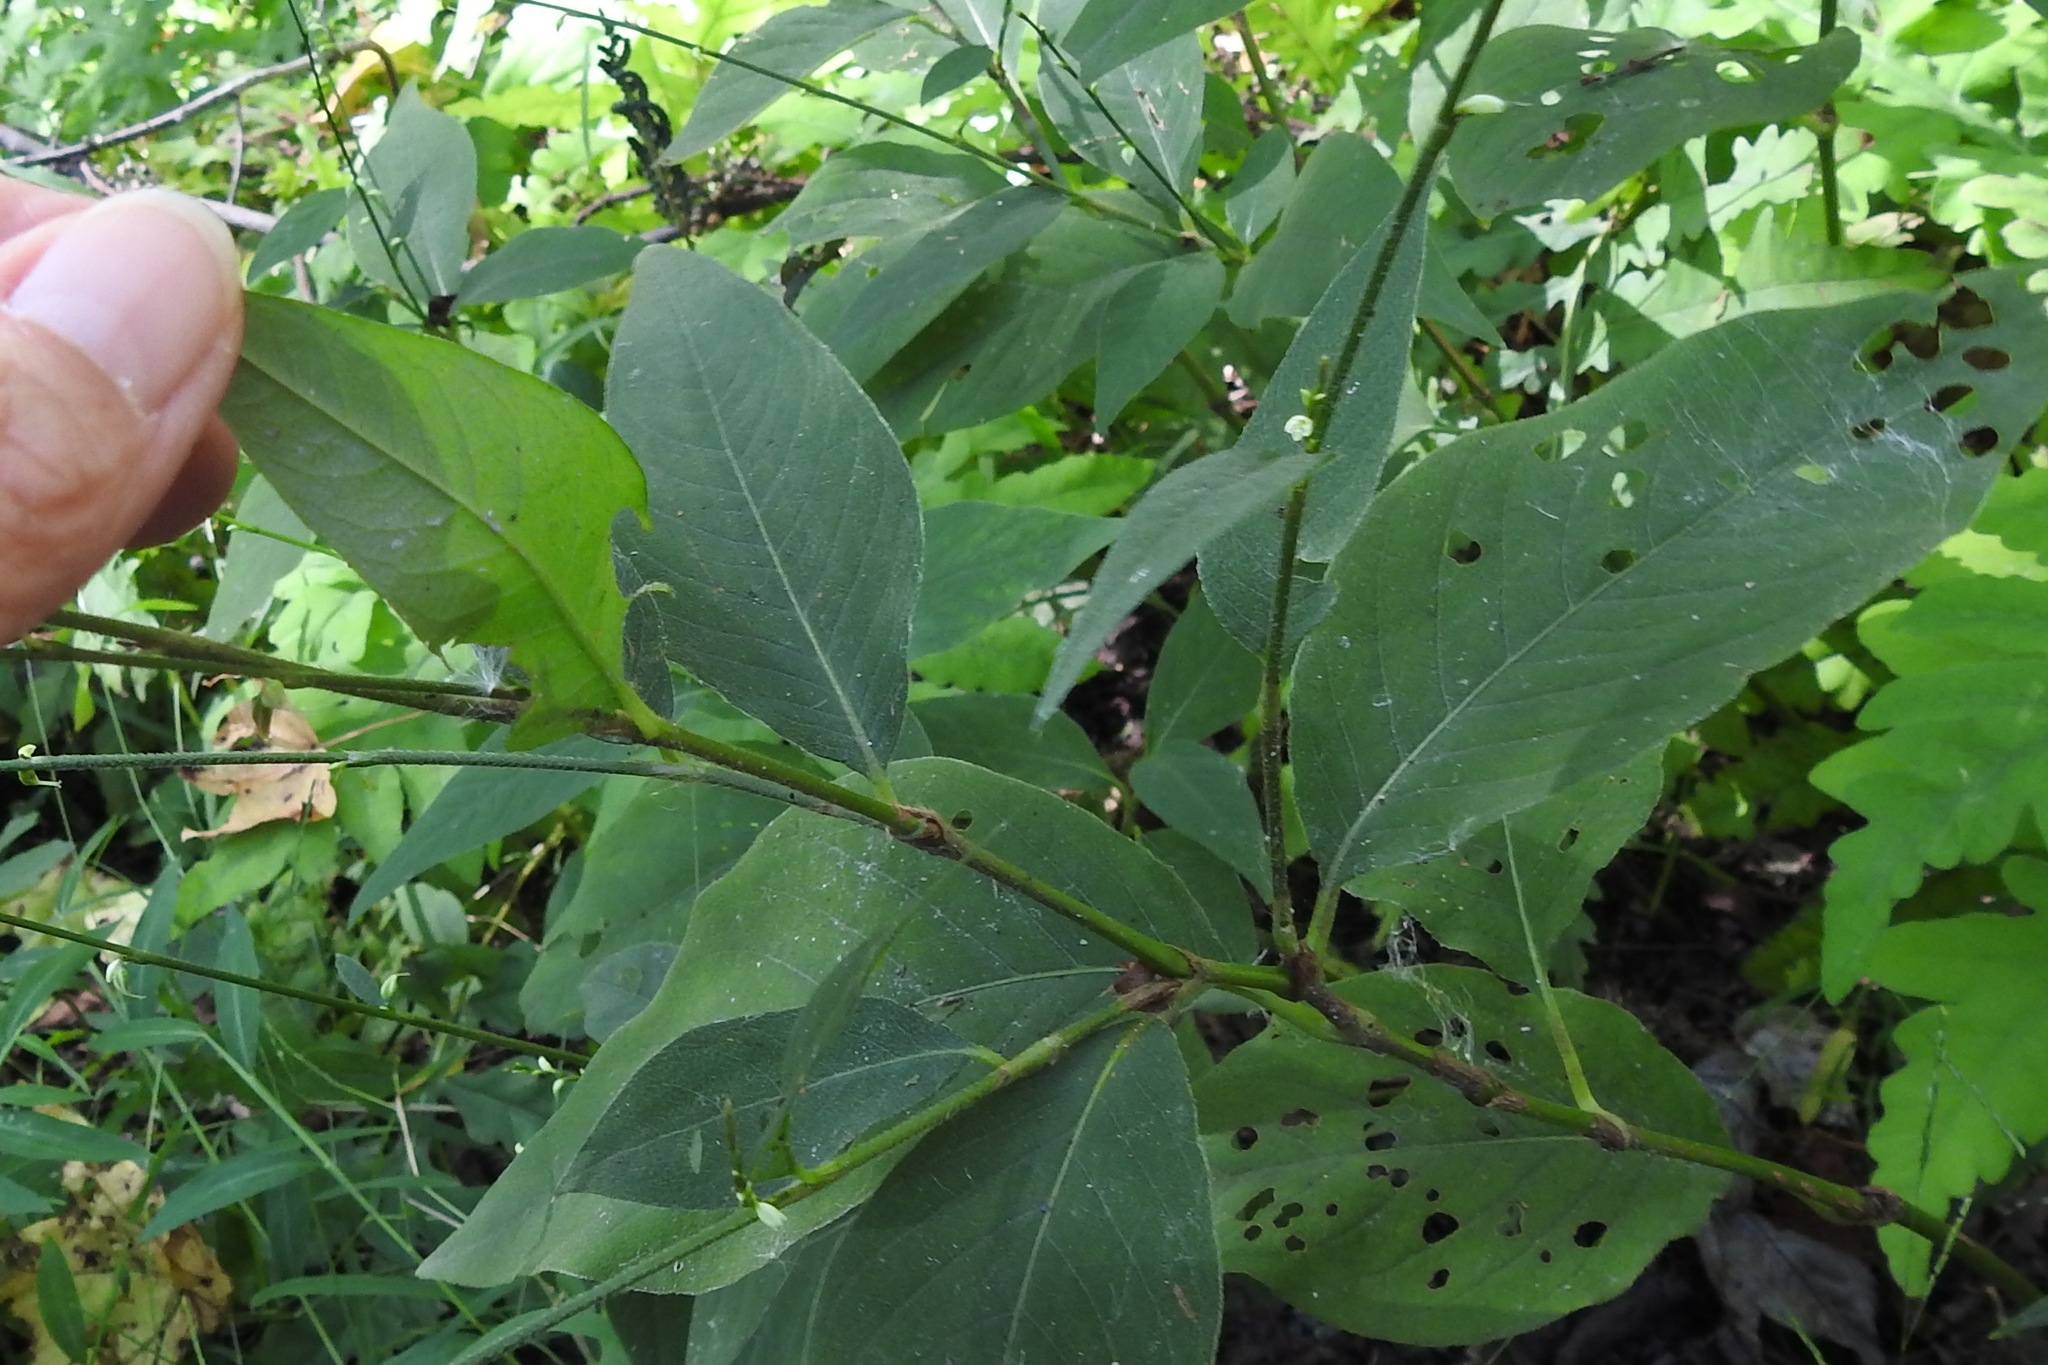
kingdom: Plantae
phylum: Tracheophyta
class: Magnoliopsida
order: Caryophyllales
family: Polygonaceae
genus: Persicaria
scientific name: Persicaria virginiana
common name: Jumpseed
